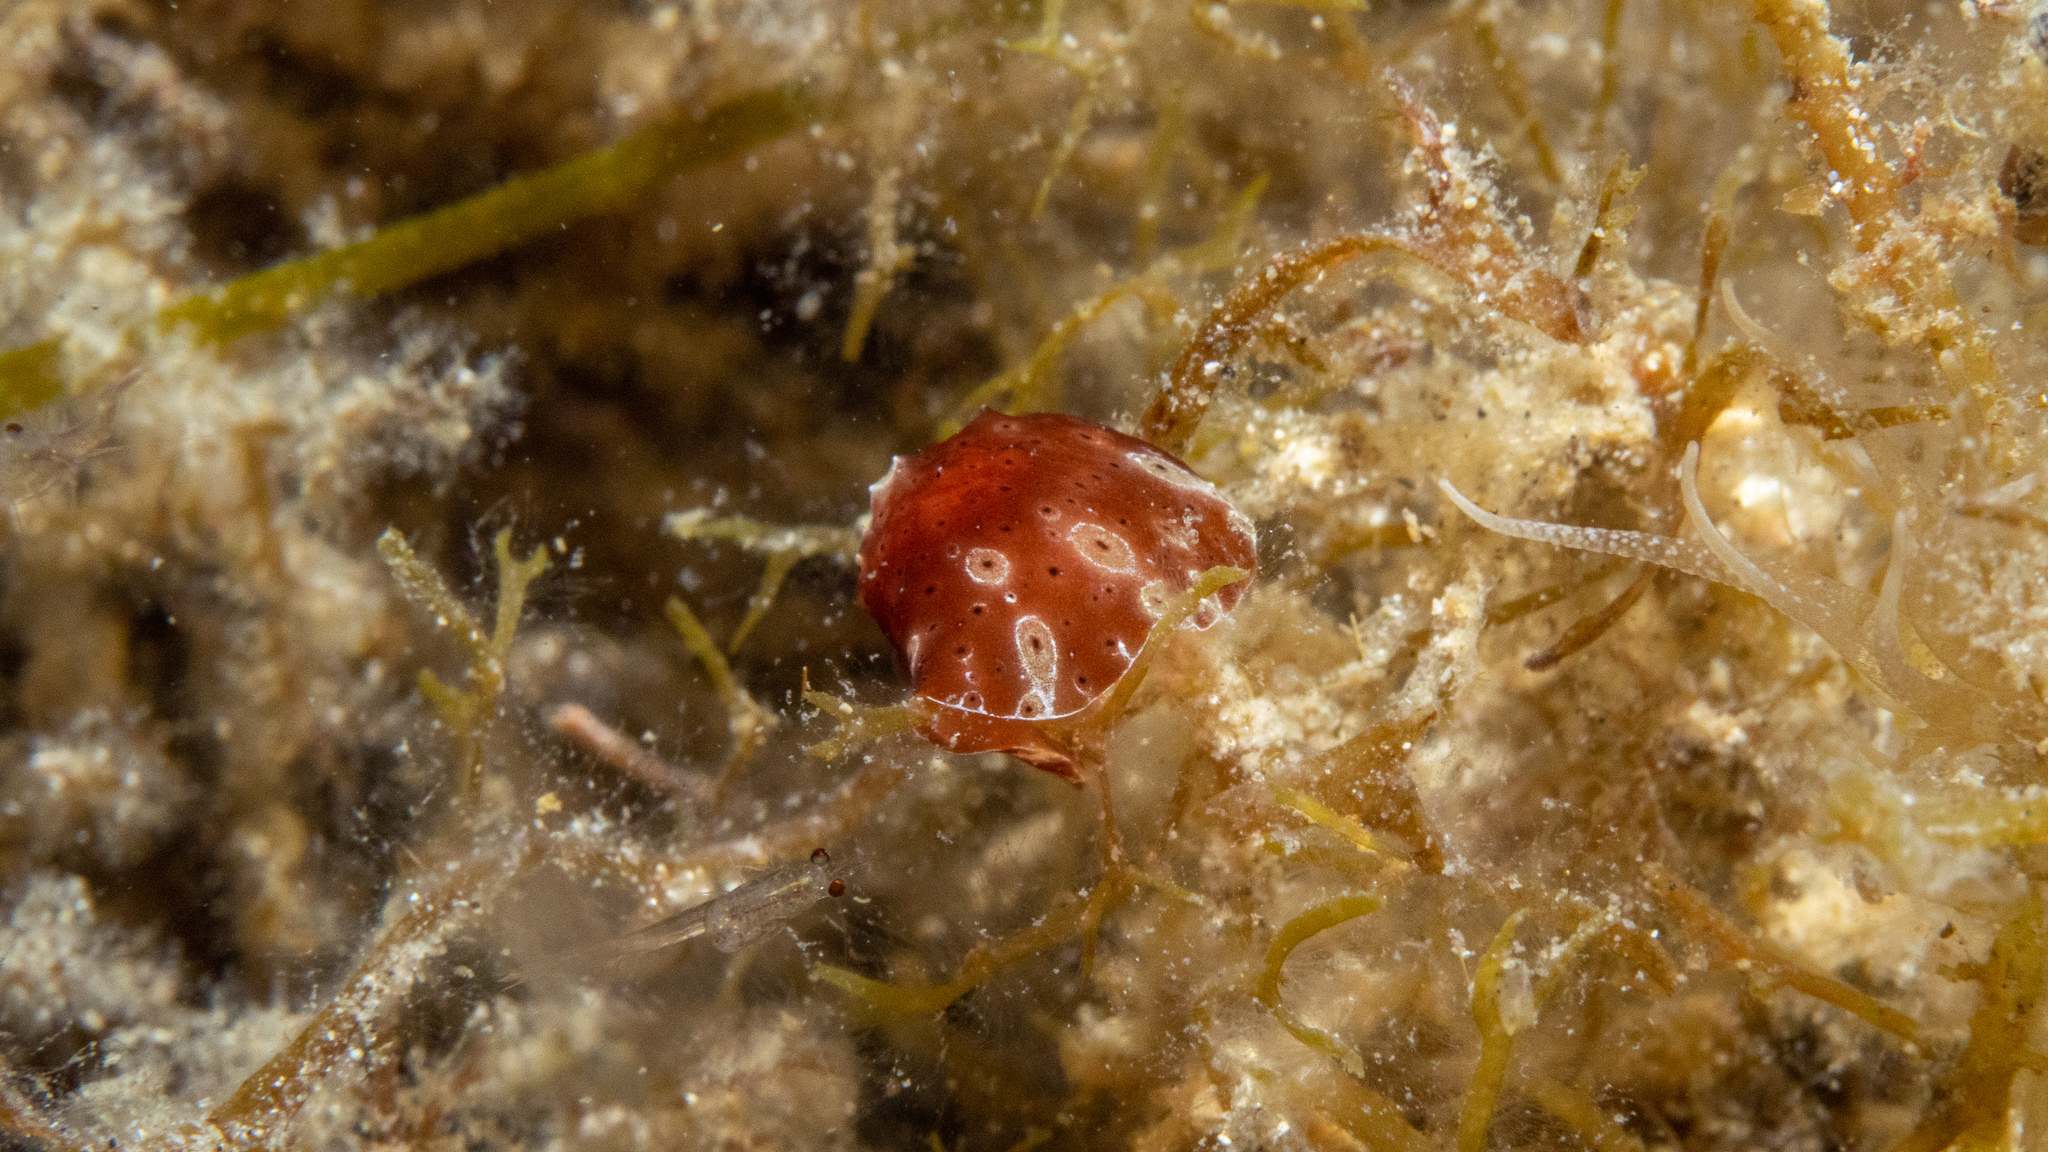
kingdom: Animalia
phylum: Mollusca
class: Gastropoda
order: Littorinimorpha
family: Velutinidae
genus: Djiboutia
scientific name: Djiboutia australis
